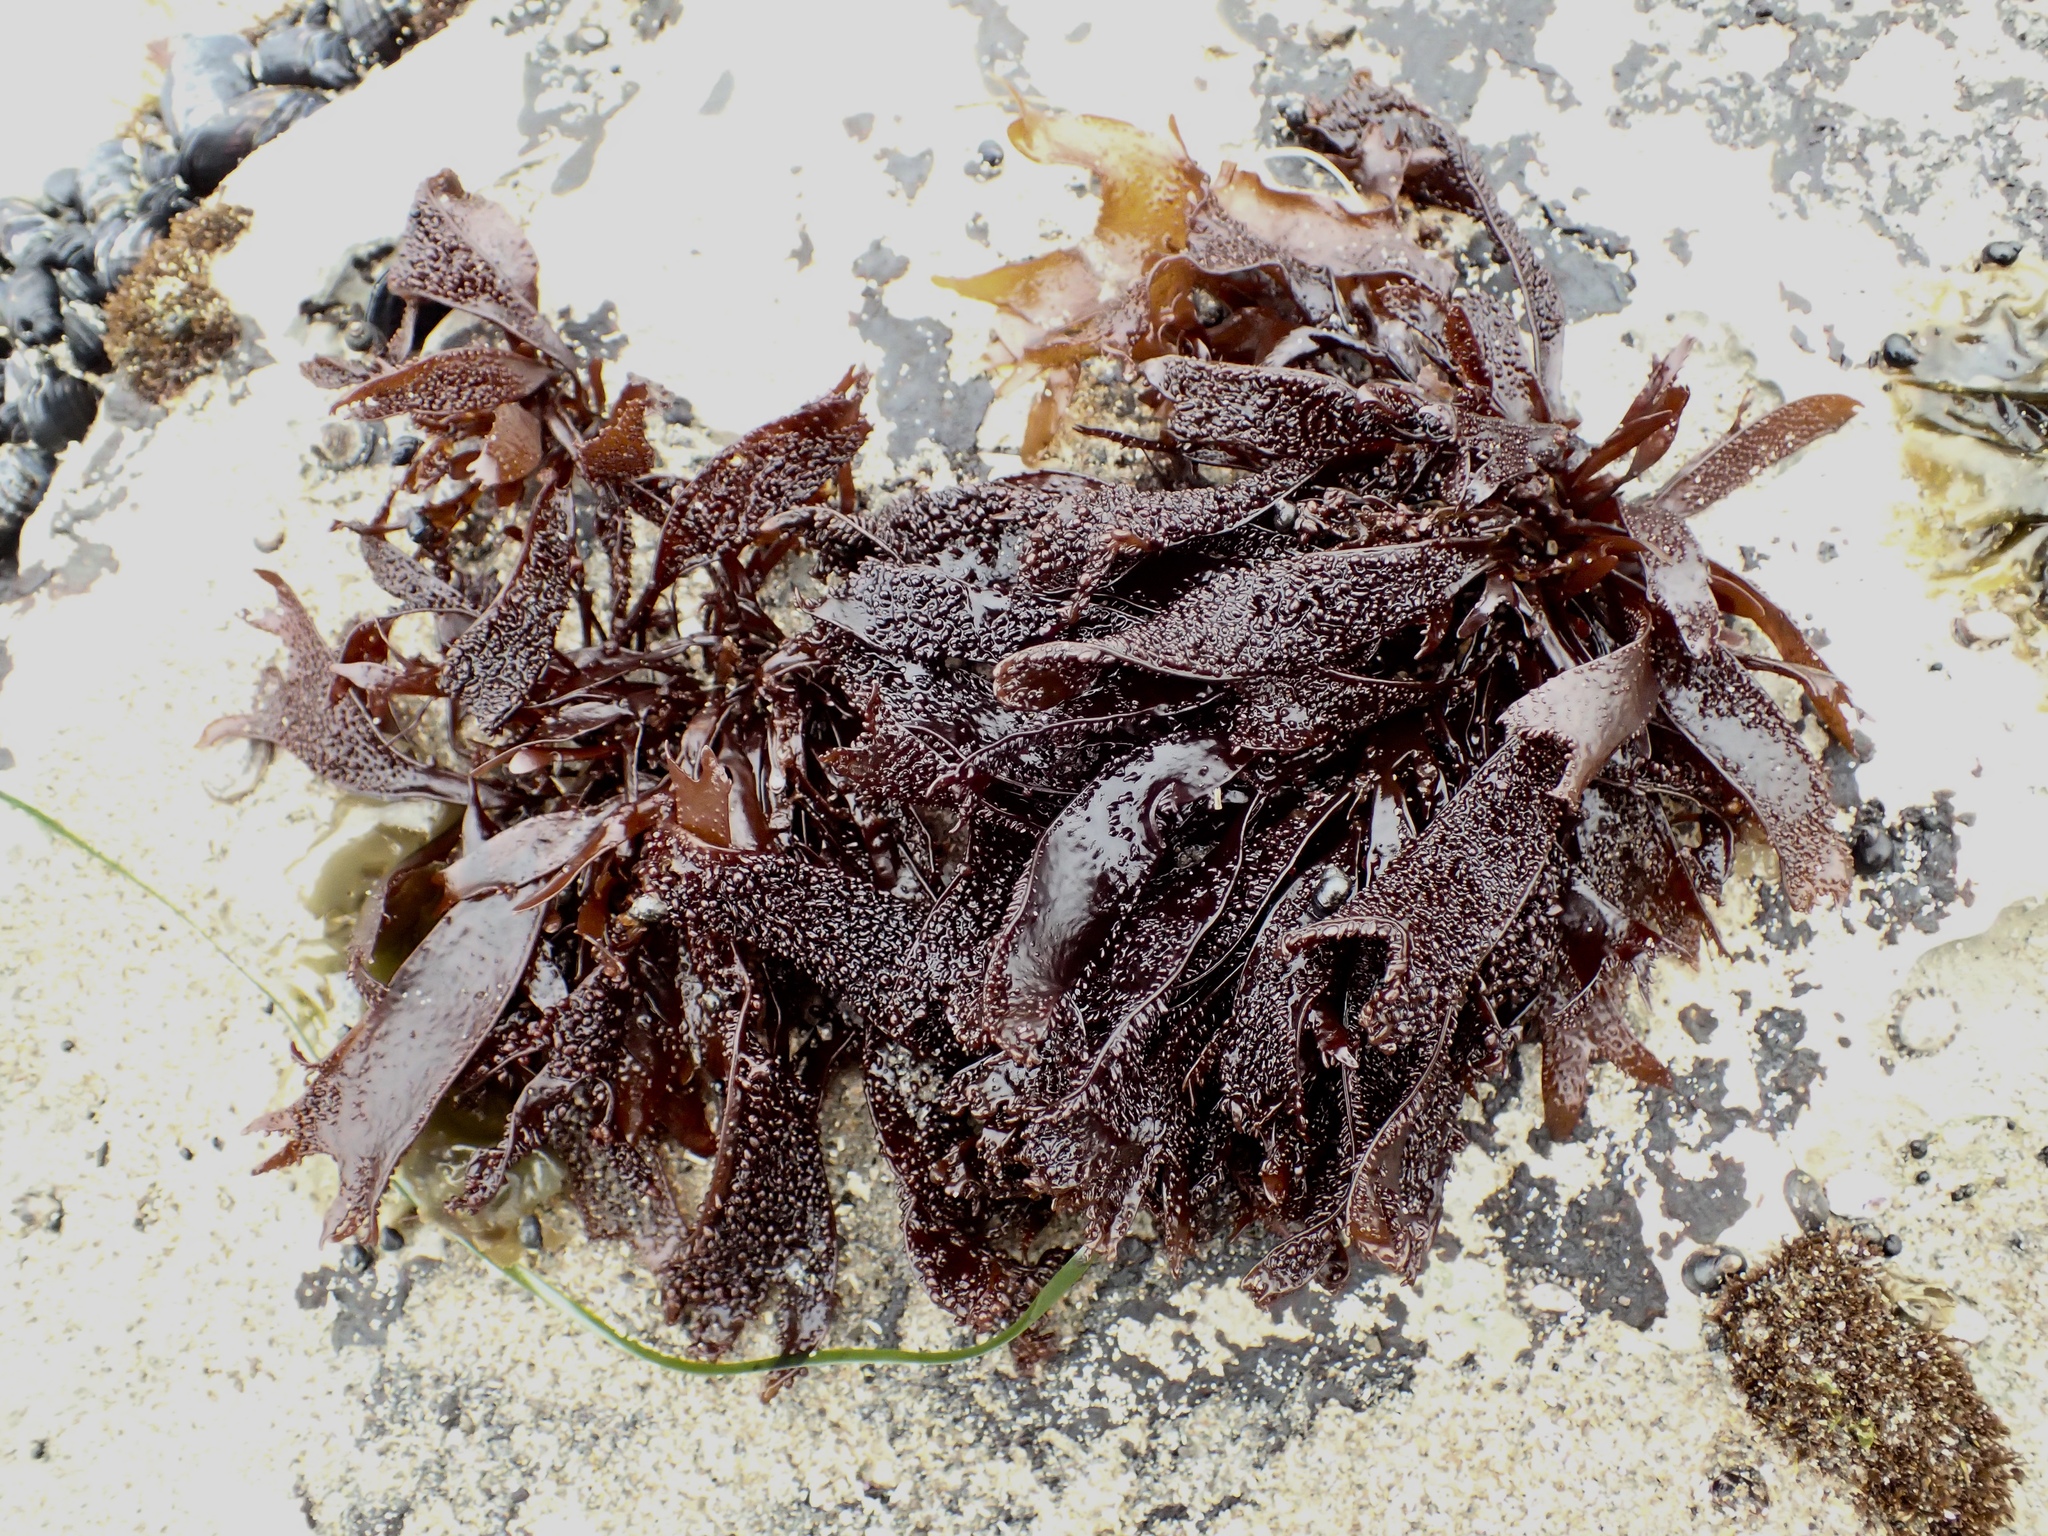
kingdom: Plantae
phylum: Rhodophyta
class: Florideophyceae
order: Gigartinales
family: Phyllophoraceae
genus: Mastocarpus
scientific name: Mastocarpus papillatus
